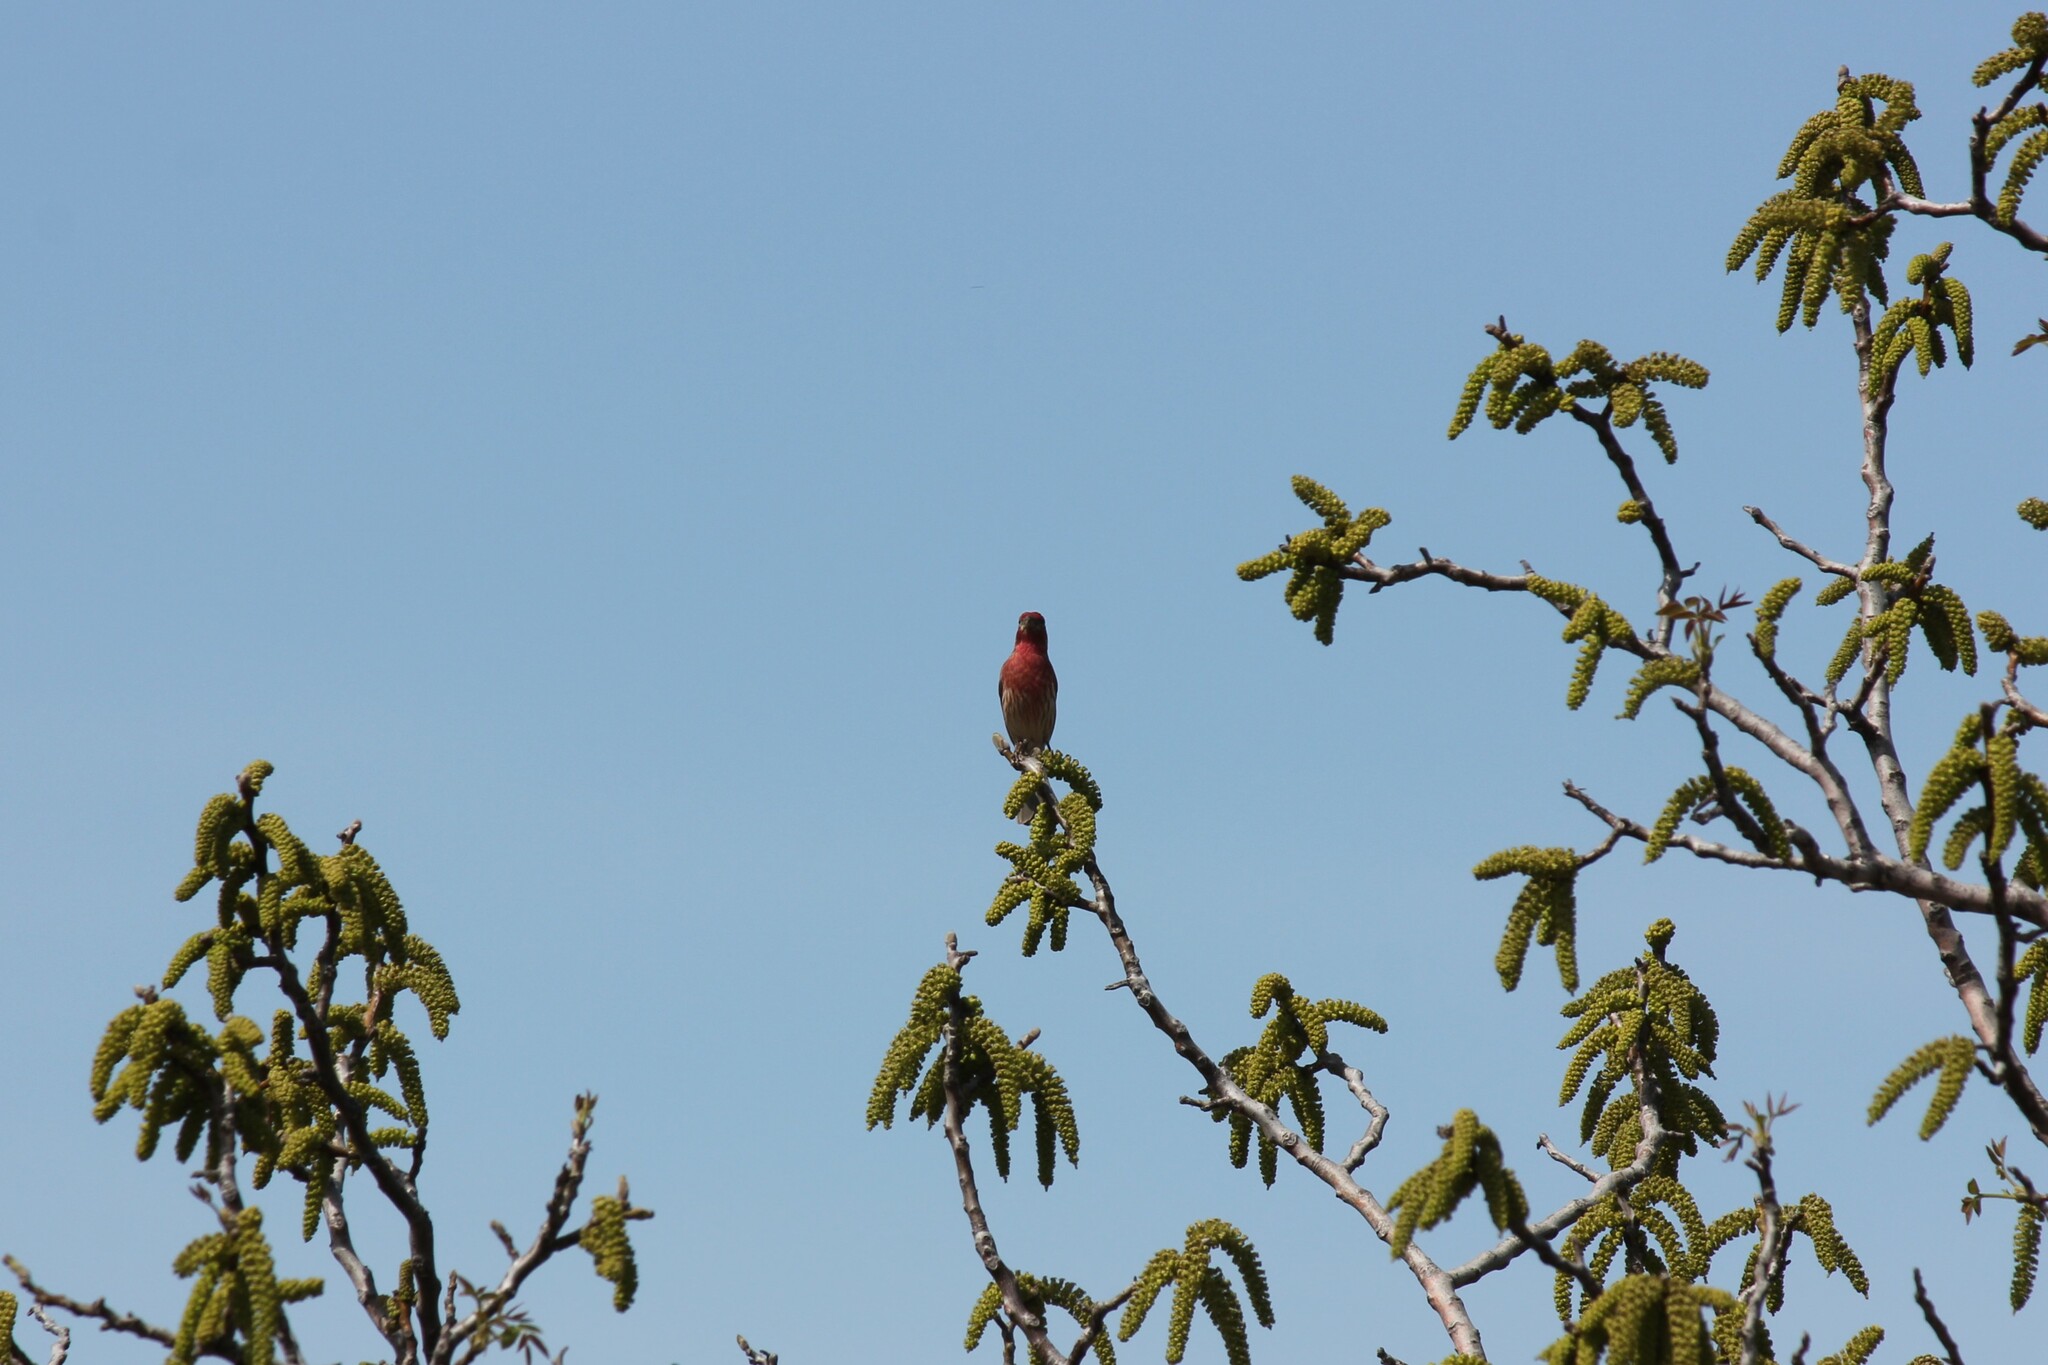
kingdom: Animalia
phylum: Chordata
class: Aves
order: Passeriformes
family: Fringillidae
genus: Haemorhous
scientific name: Haemorhous mexicanus
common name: House finch
